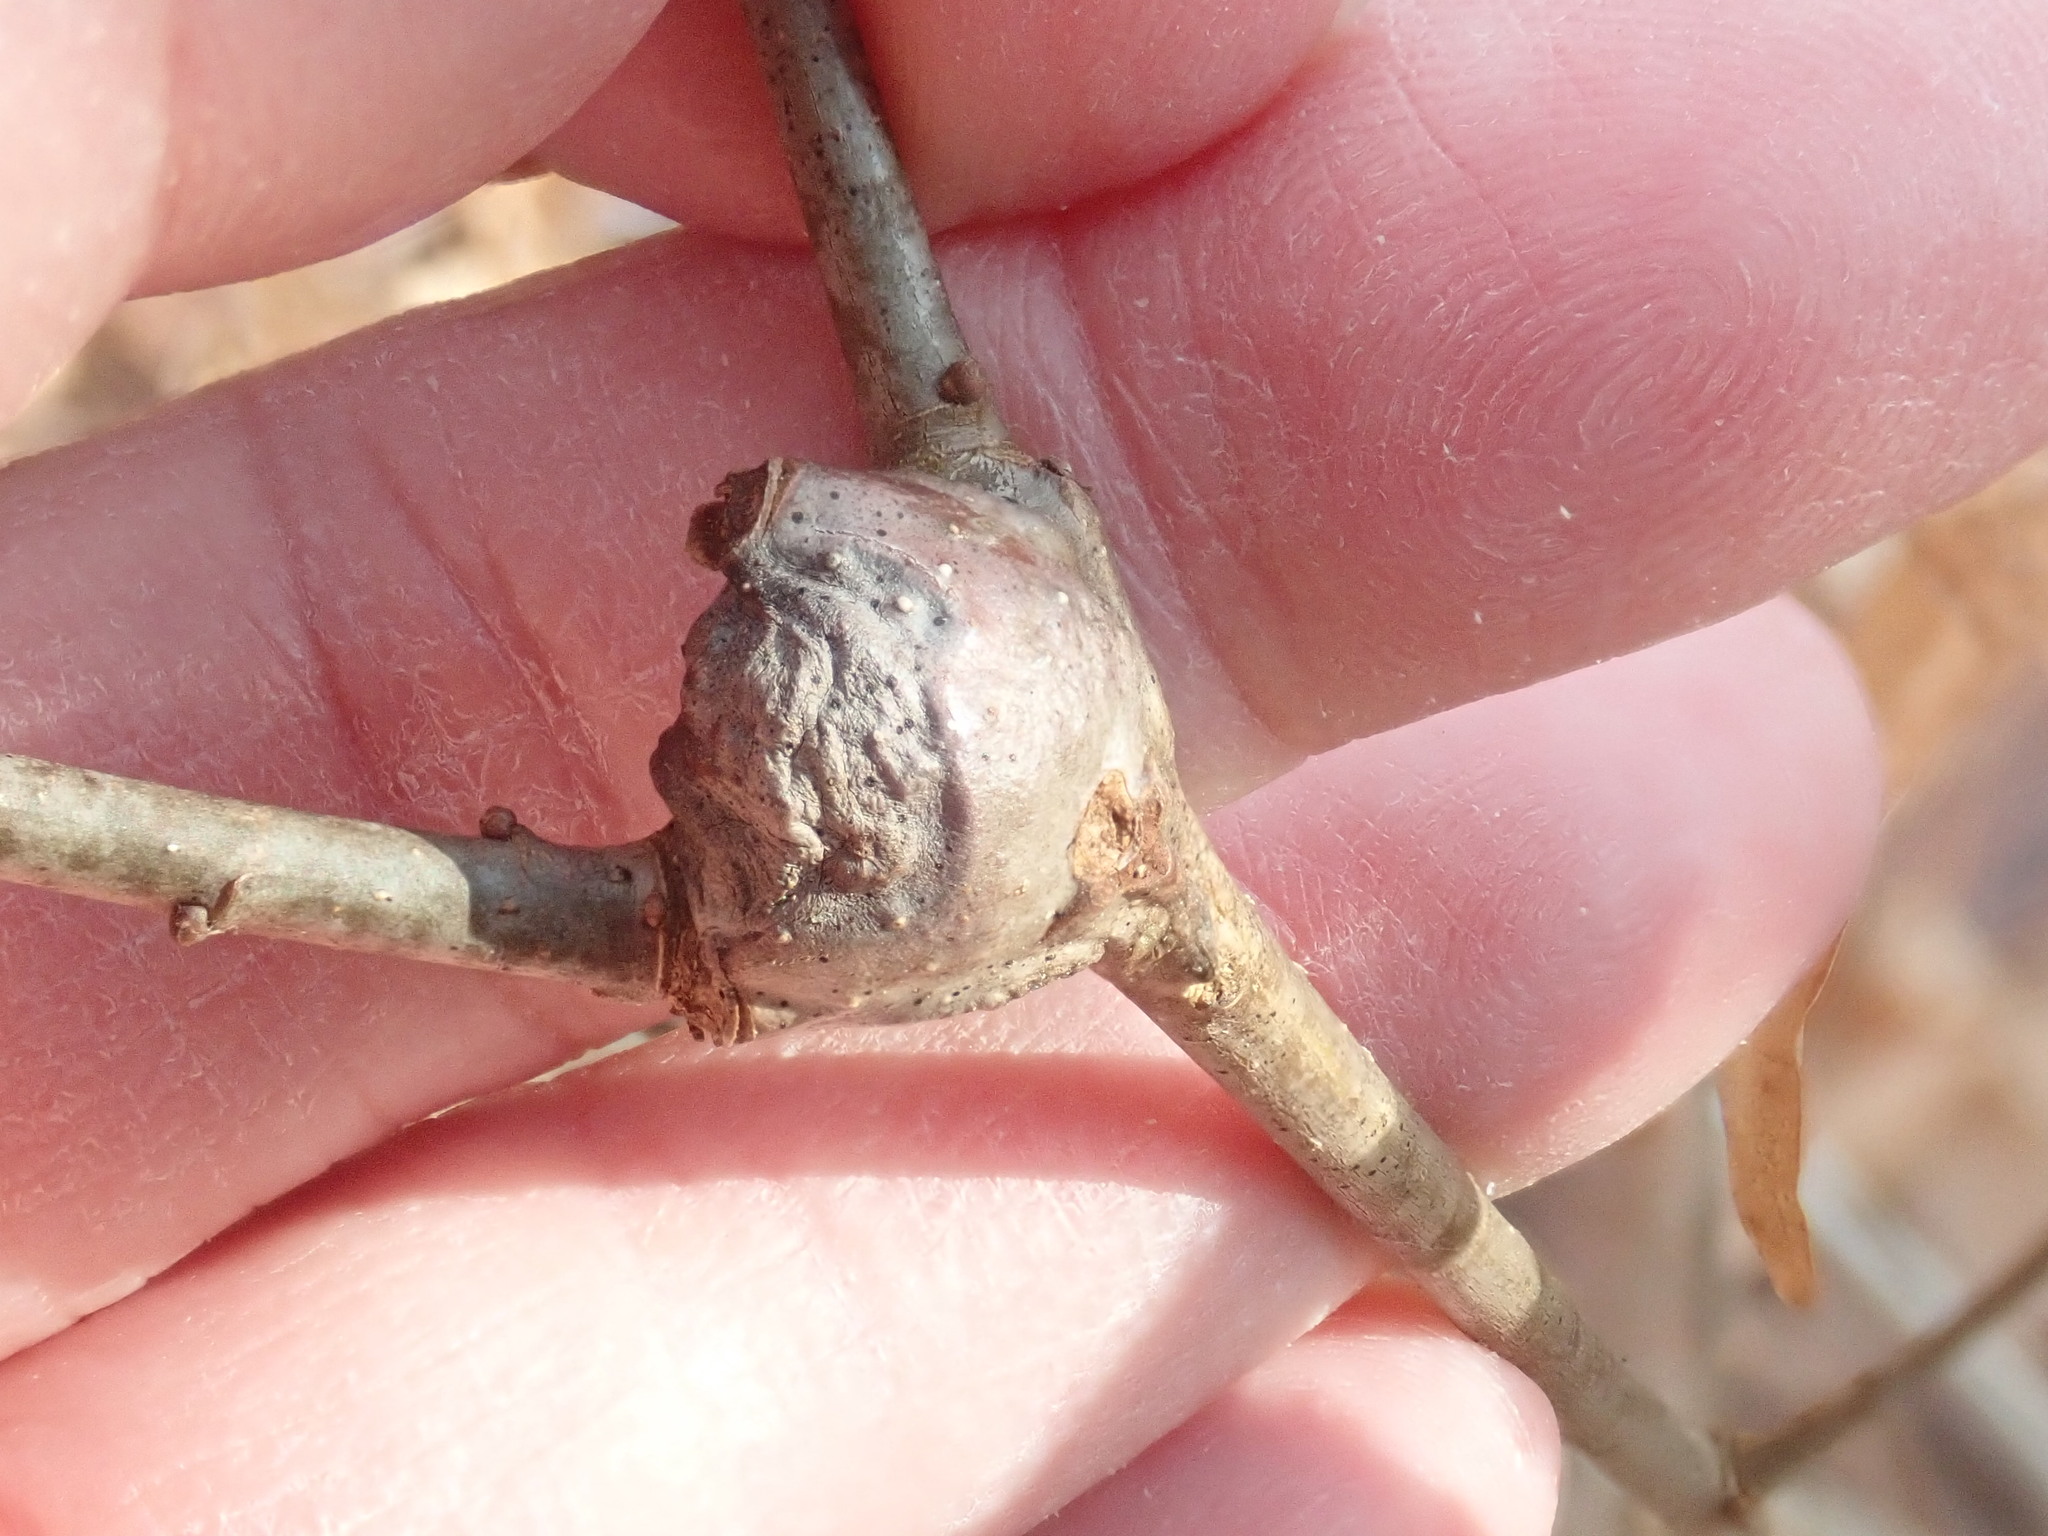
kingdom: Animalia
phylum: Arthropoda
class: Insecta
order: Hymenoptera
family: Cynipidae
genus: Callirhytis
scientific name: Callirhytis clavula
